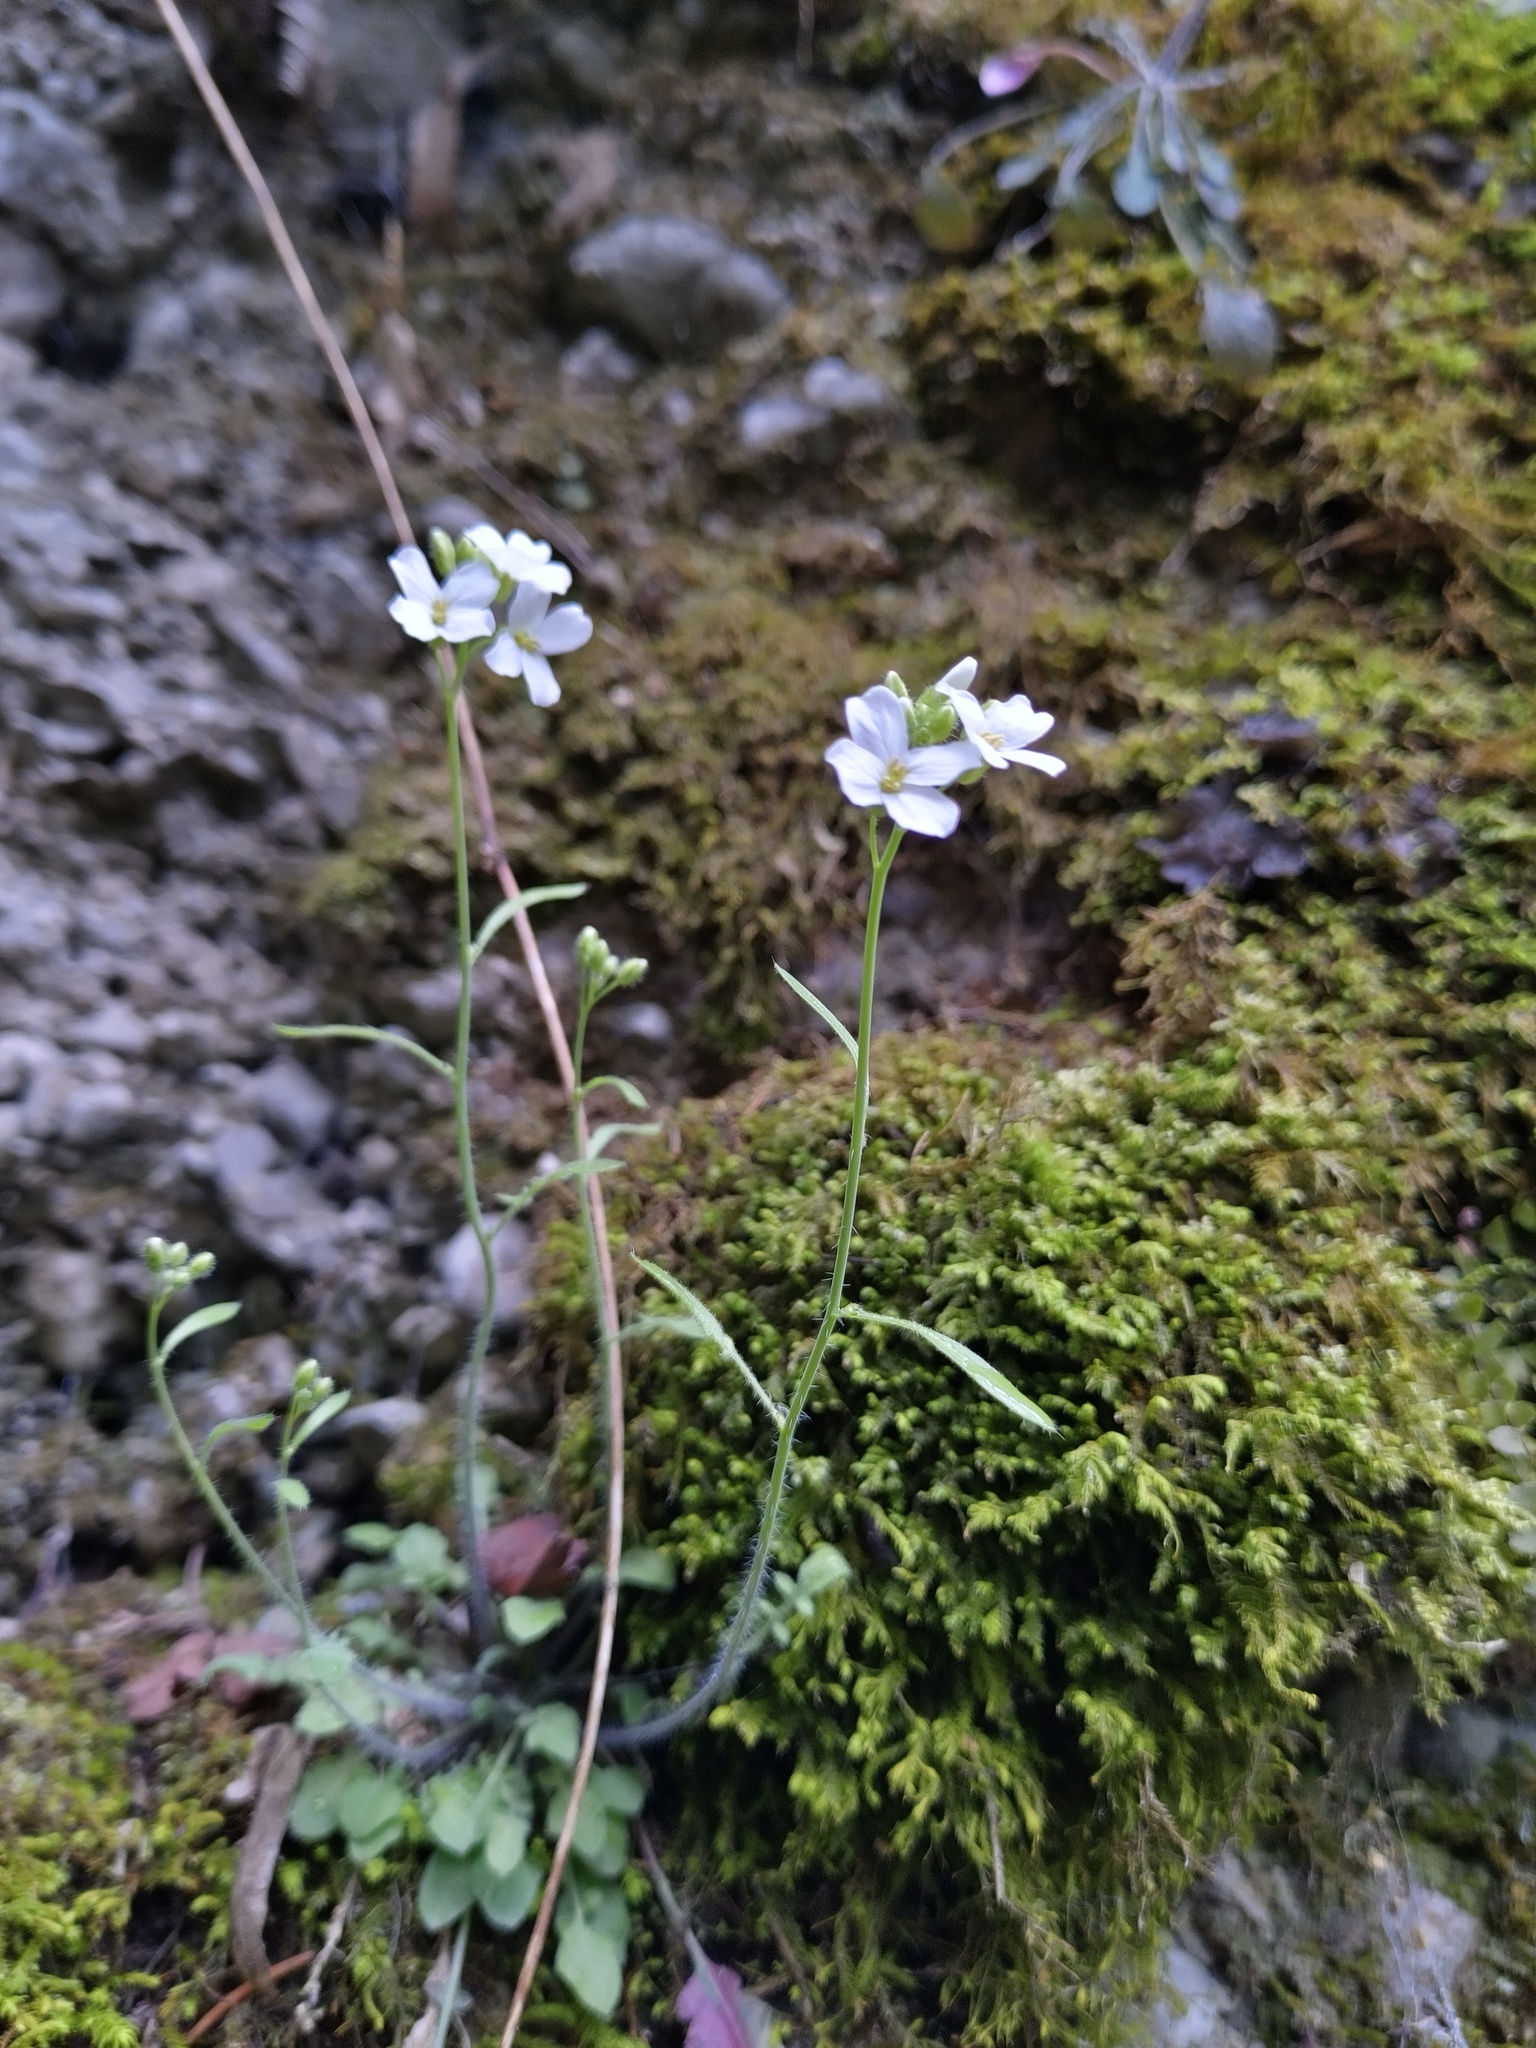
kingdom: Plantae
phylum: Tracheophyta
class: Magnoliopsida
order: Brassicales
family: Brassicaceae
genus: Arabidopsis
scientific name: Arabidopsis arenosa
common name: Sand rock-cress
